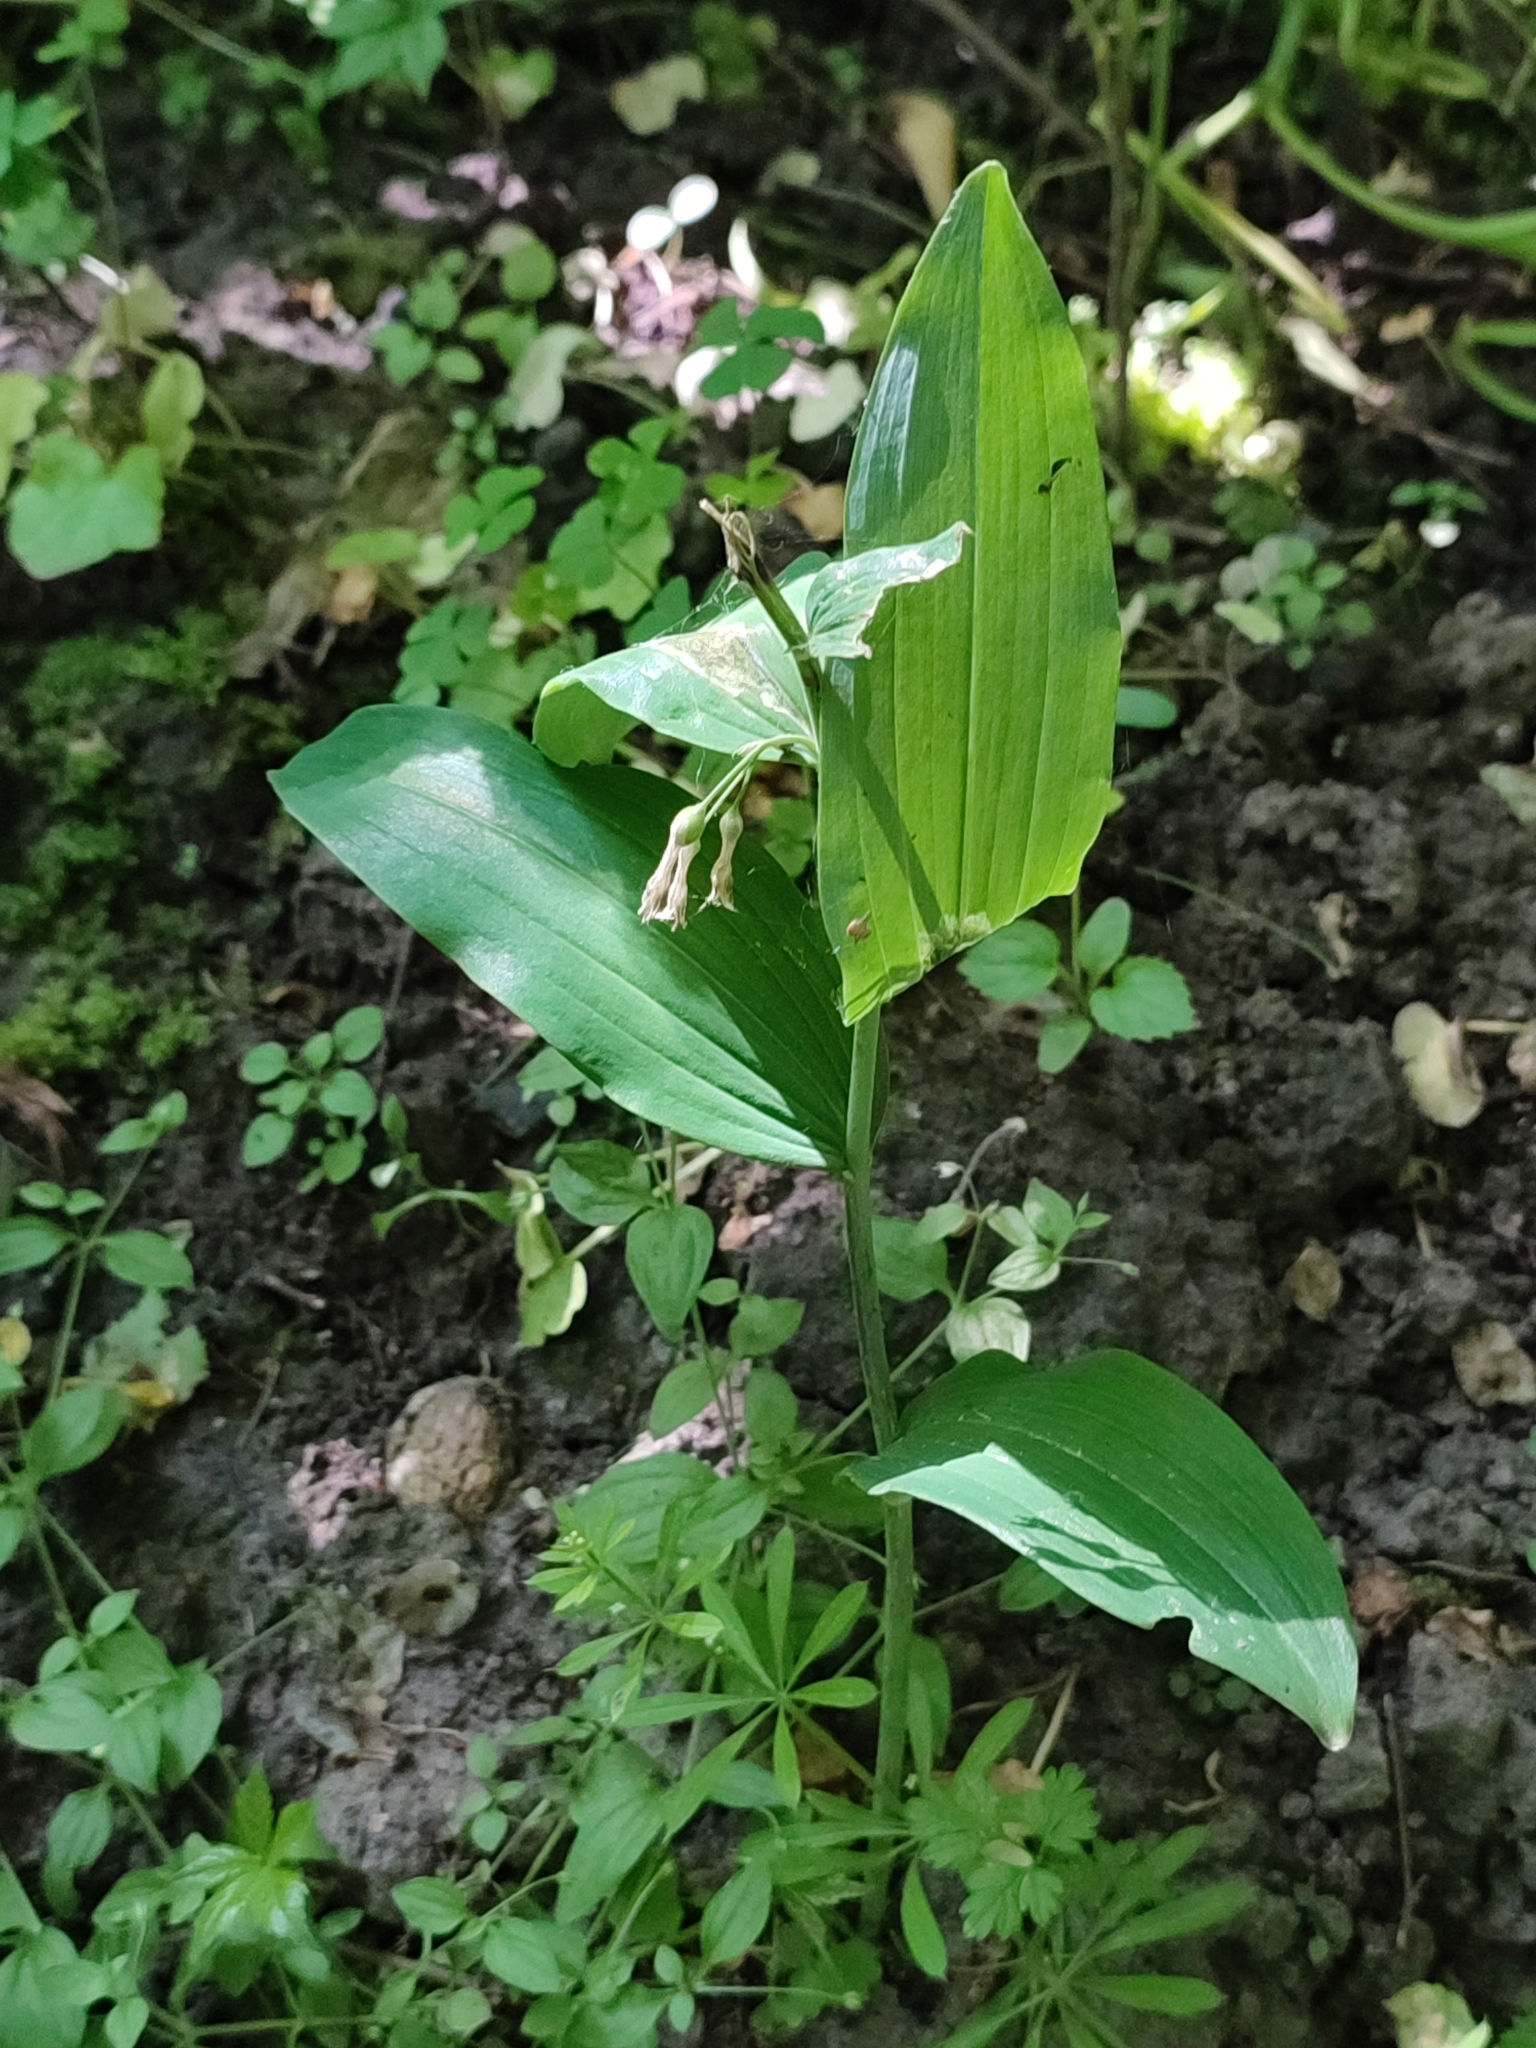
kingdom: Plantae
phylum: Tracheophyta
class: Liliopsida
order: Asparagales
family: Asparagaceae
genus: Polygonatum
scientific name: Polygonatum multiflorum
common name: Solomon's-seal
